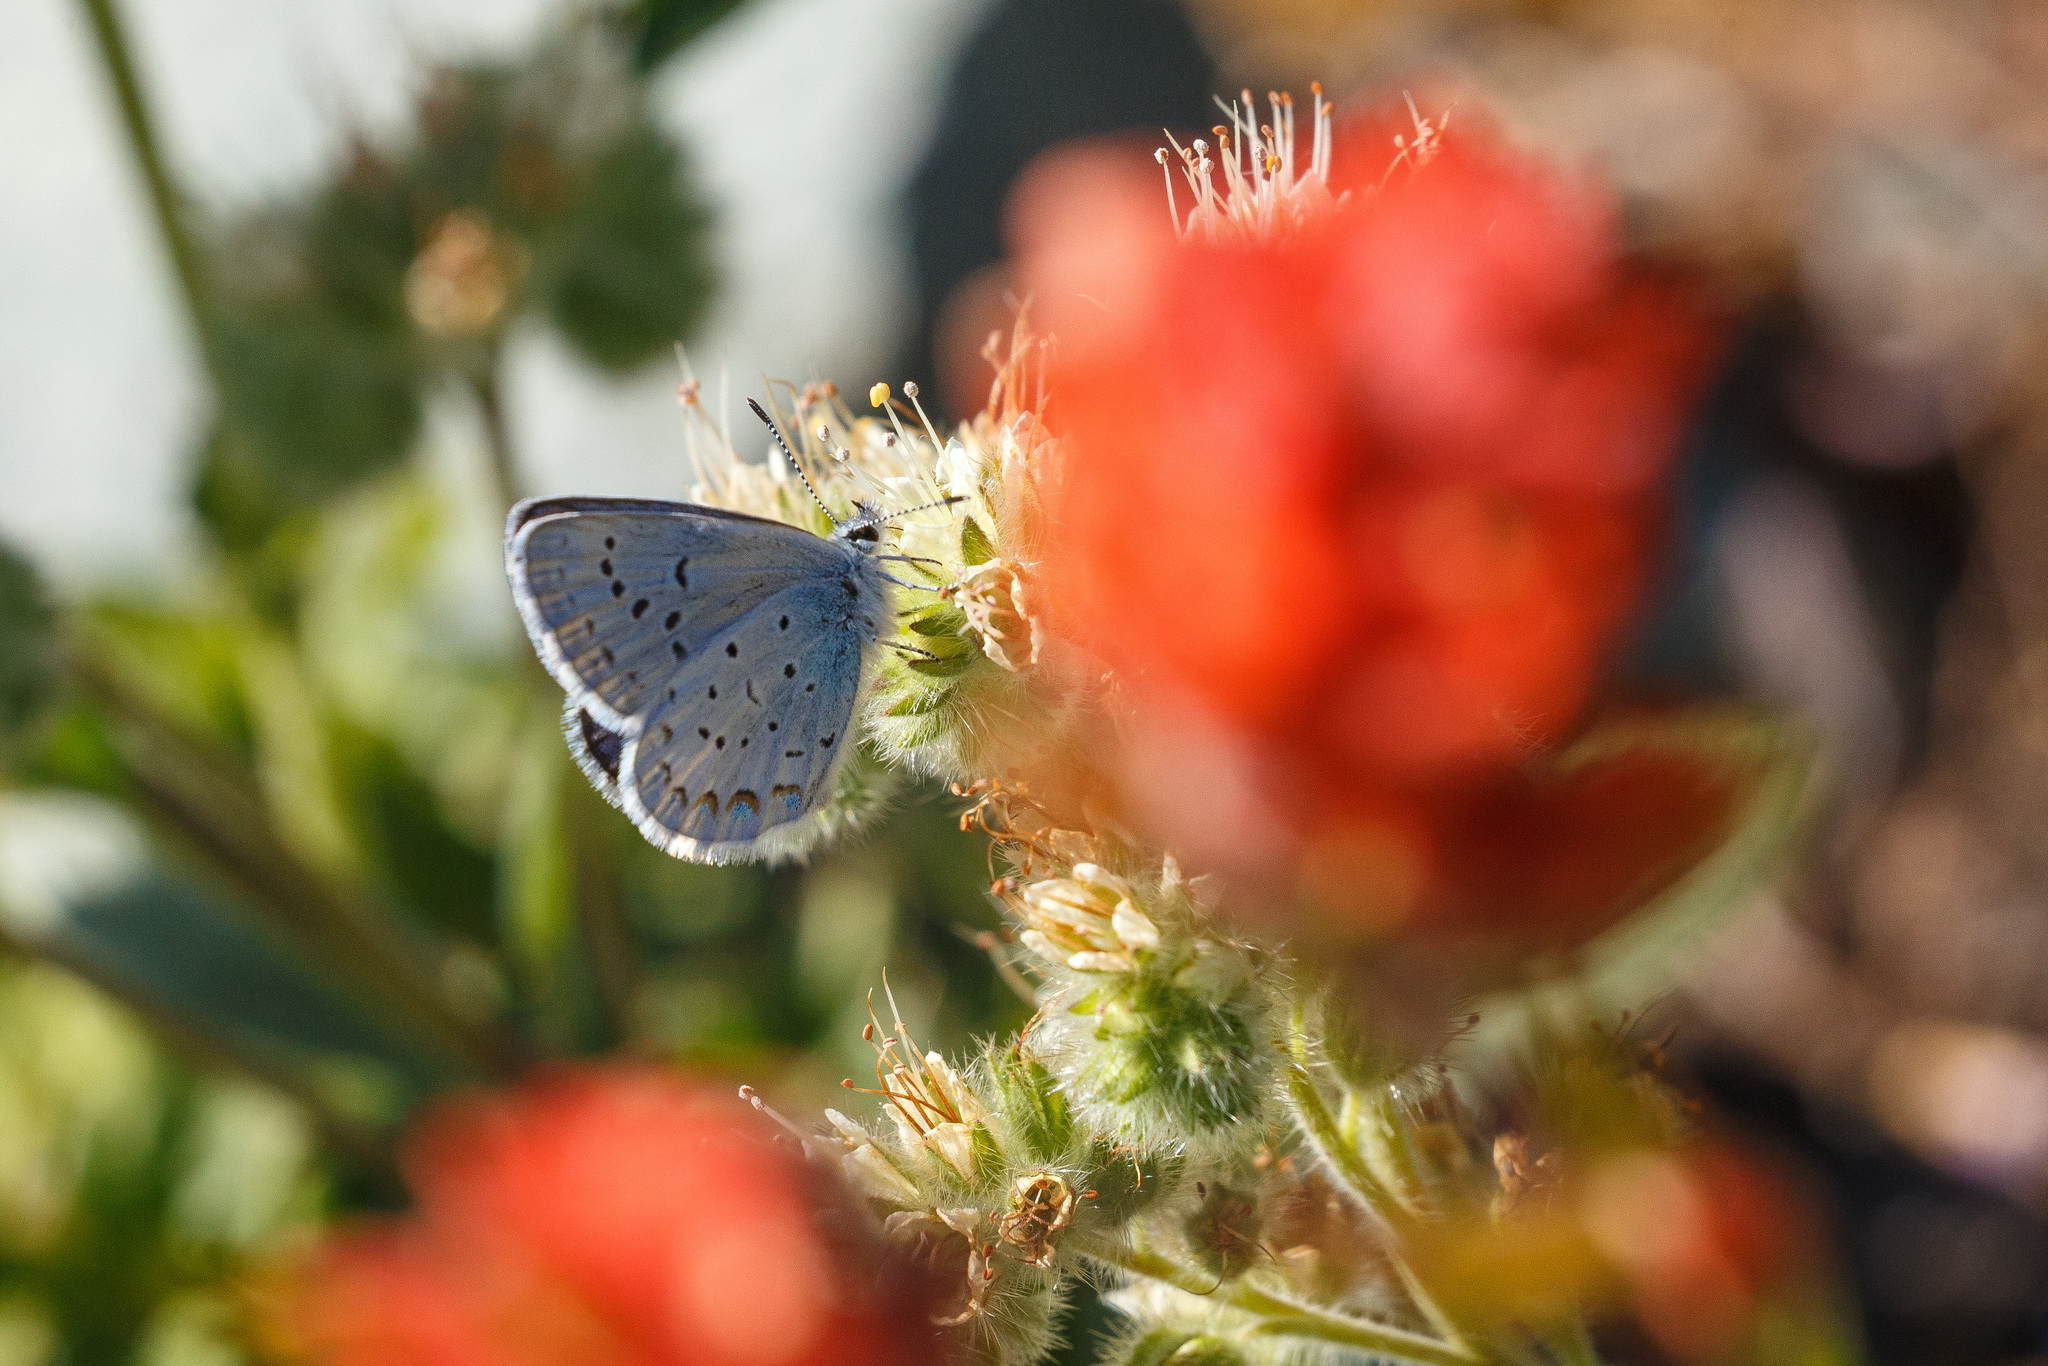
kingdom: Animalia
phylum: Arthropoda
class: Insecta
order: Lepidoptera
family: Lycaenidae
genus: Lycaeides
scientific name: Lycaeides anna
